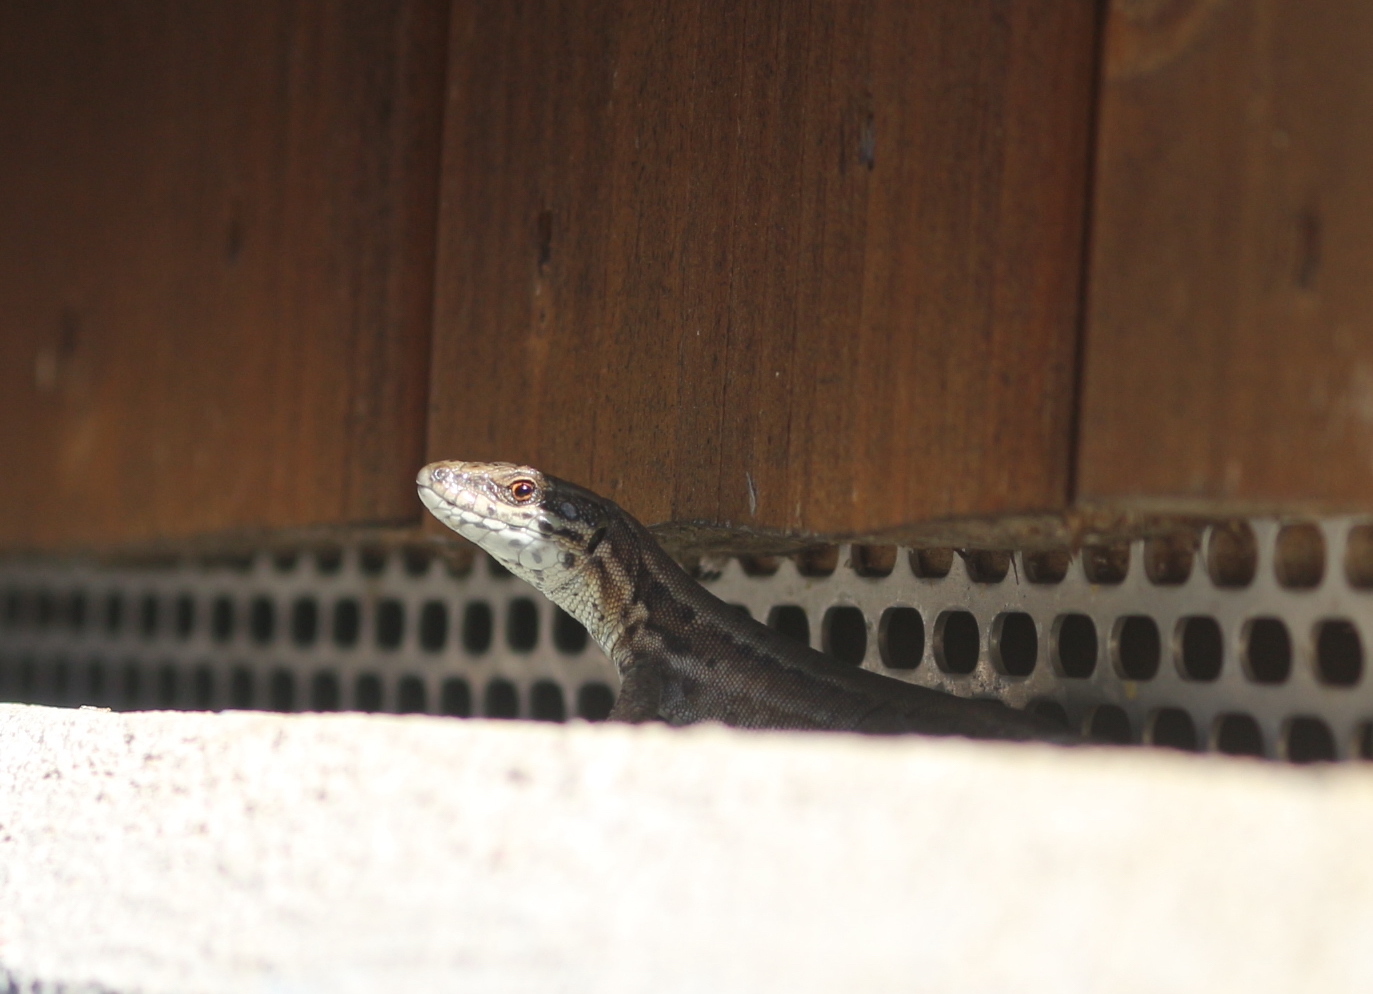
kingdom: Animalia
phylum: Chordata
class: Squamata
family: Lacertidae
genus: Podarcis
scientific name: Podarcis muralis
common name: Common wall lizard
